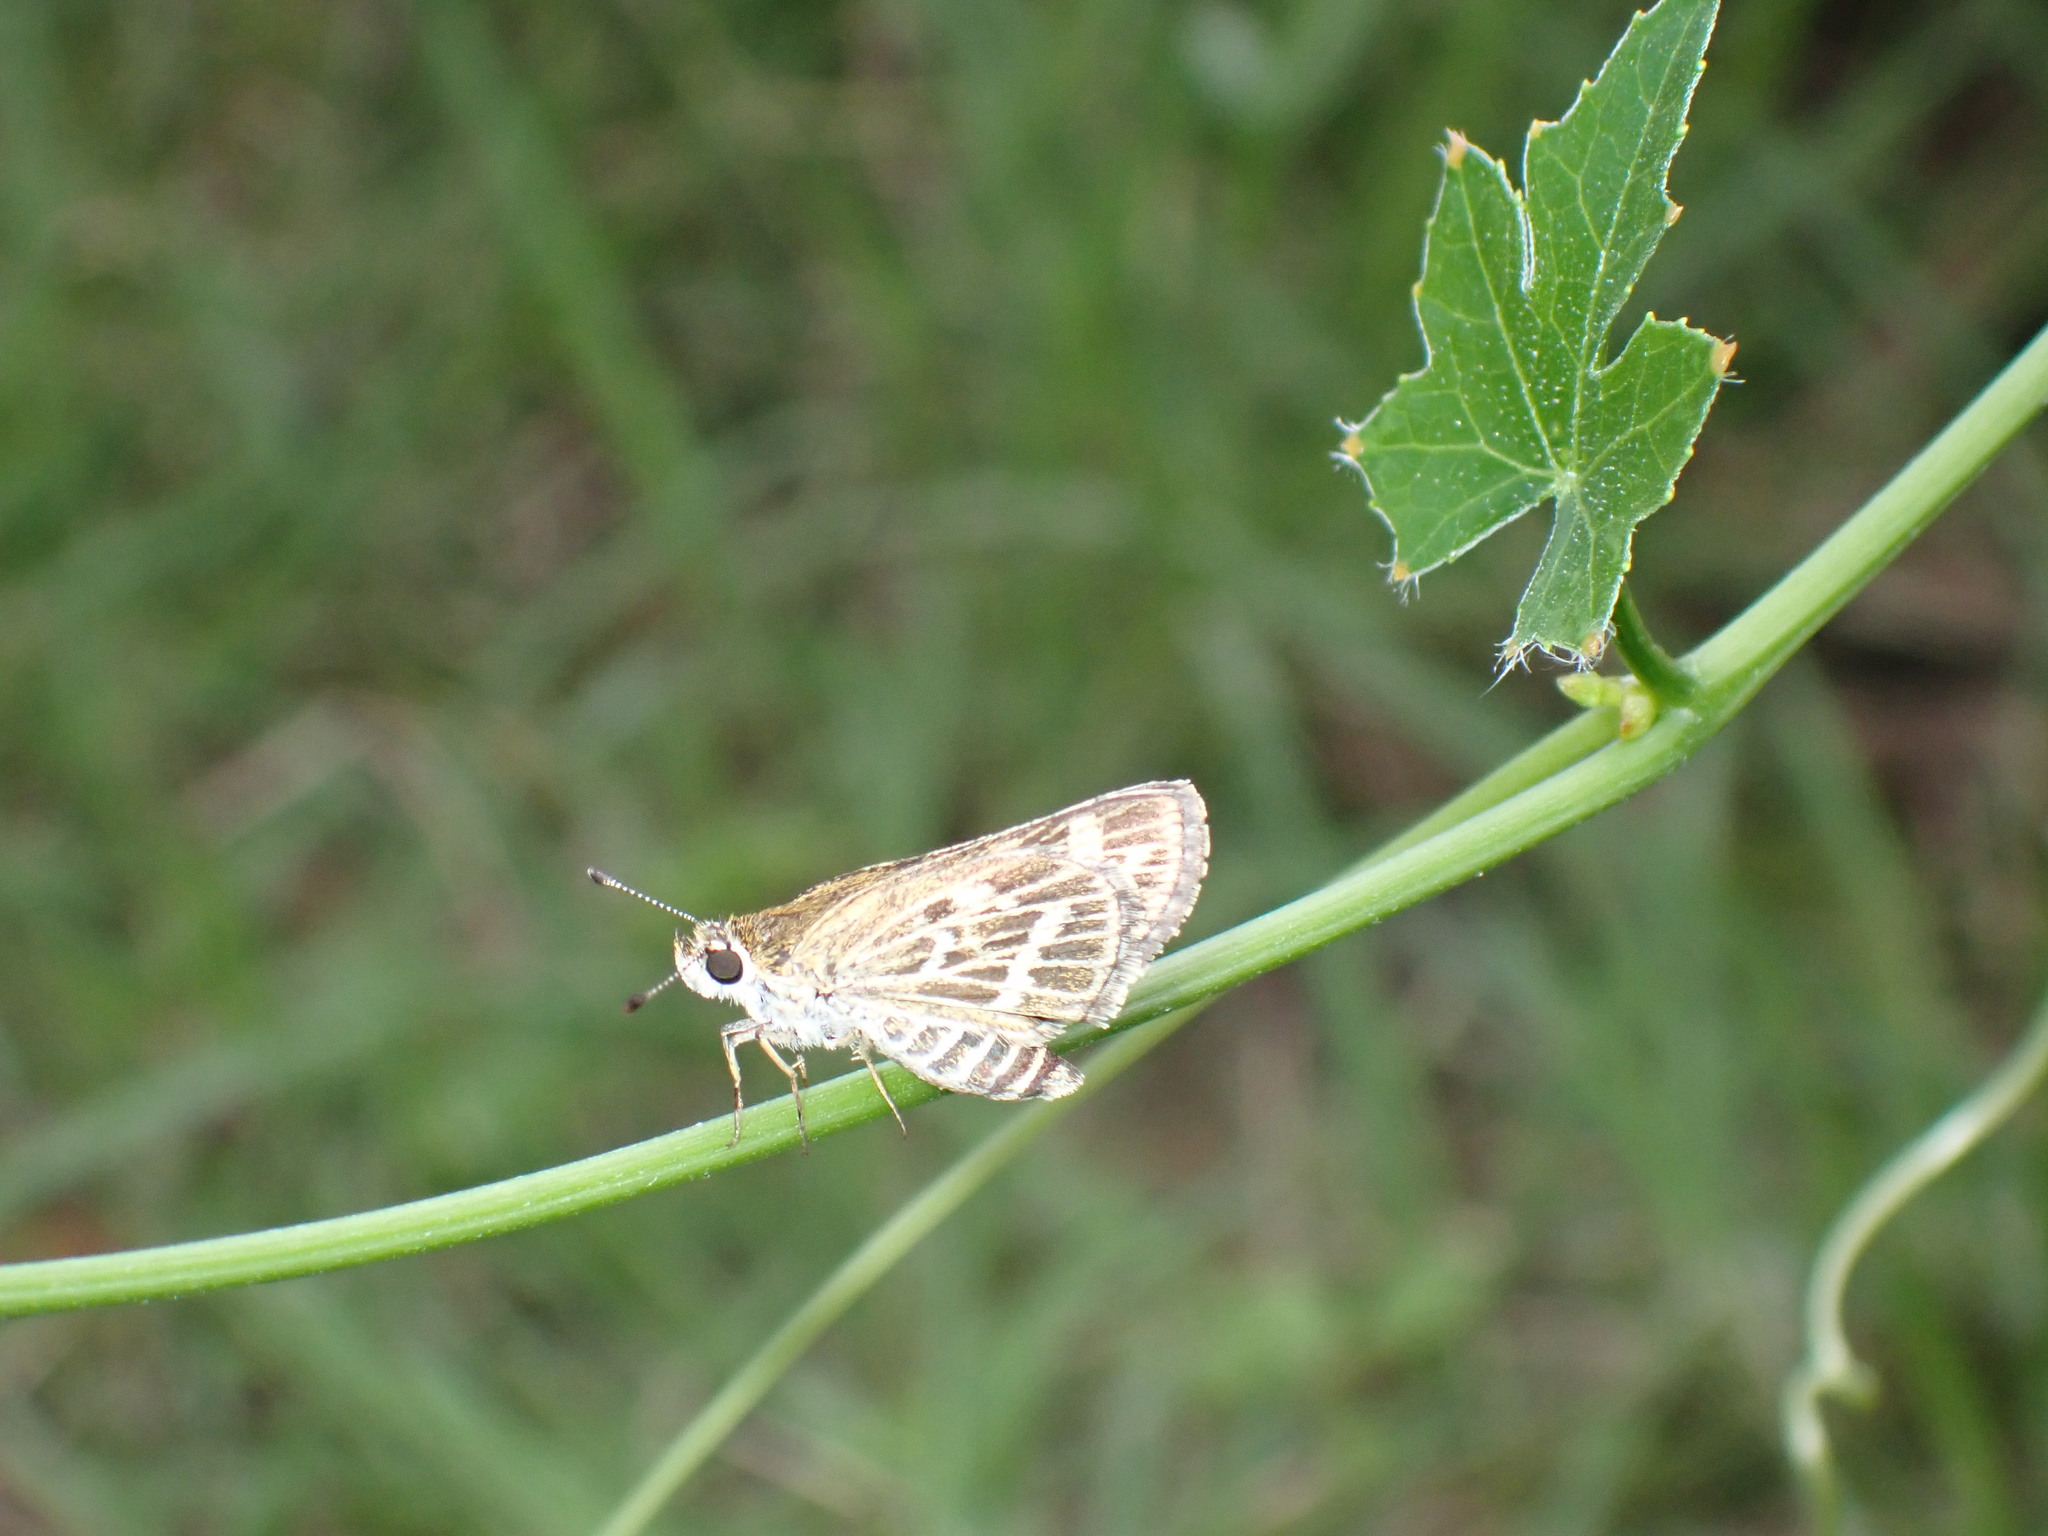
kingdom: Animalia
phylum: Arthropoda
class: Insecta
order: Lepidoptera
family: Hesperiidae
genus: Taractrocera
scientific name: Taractrocera maevius
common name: Common grass-dart
